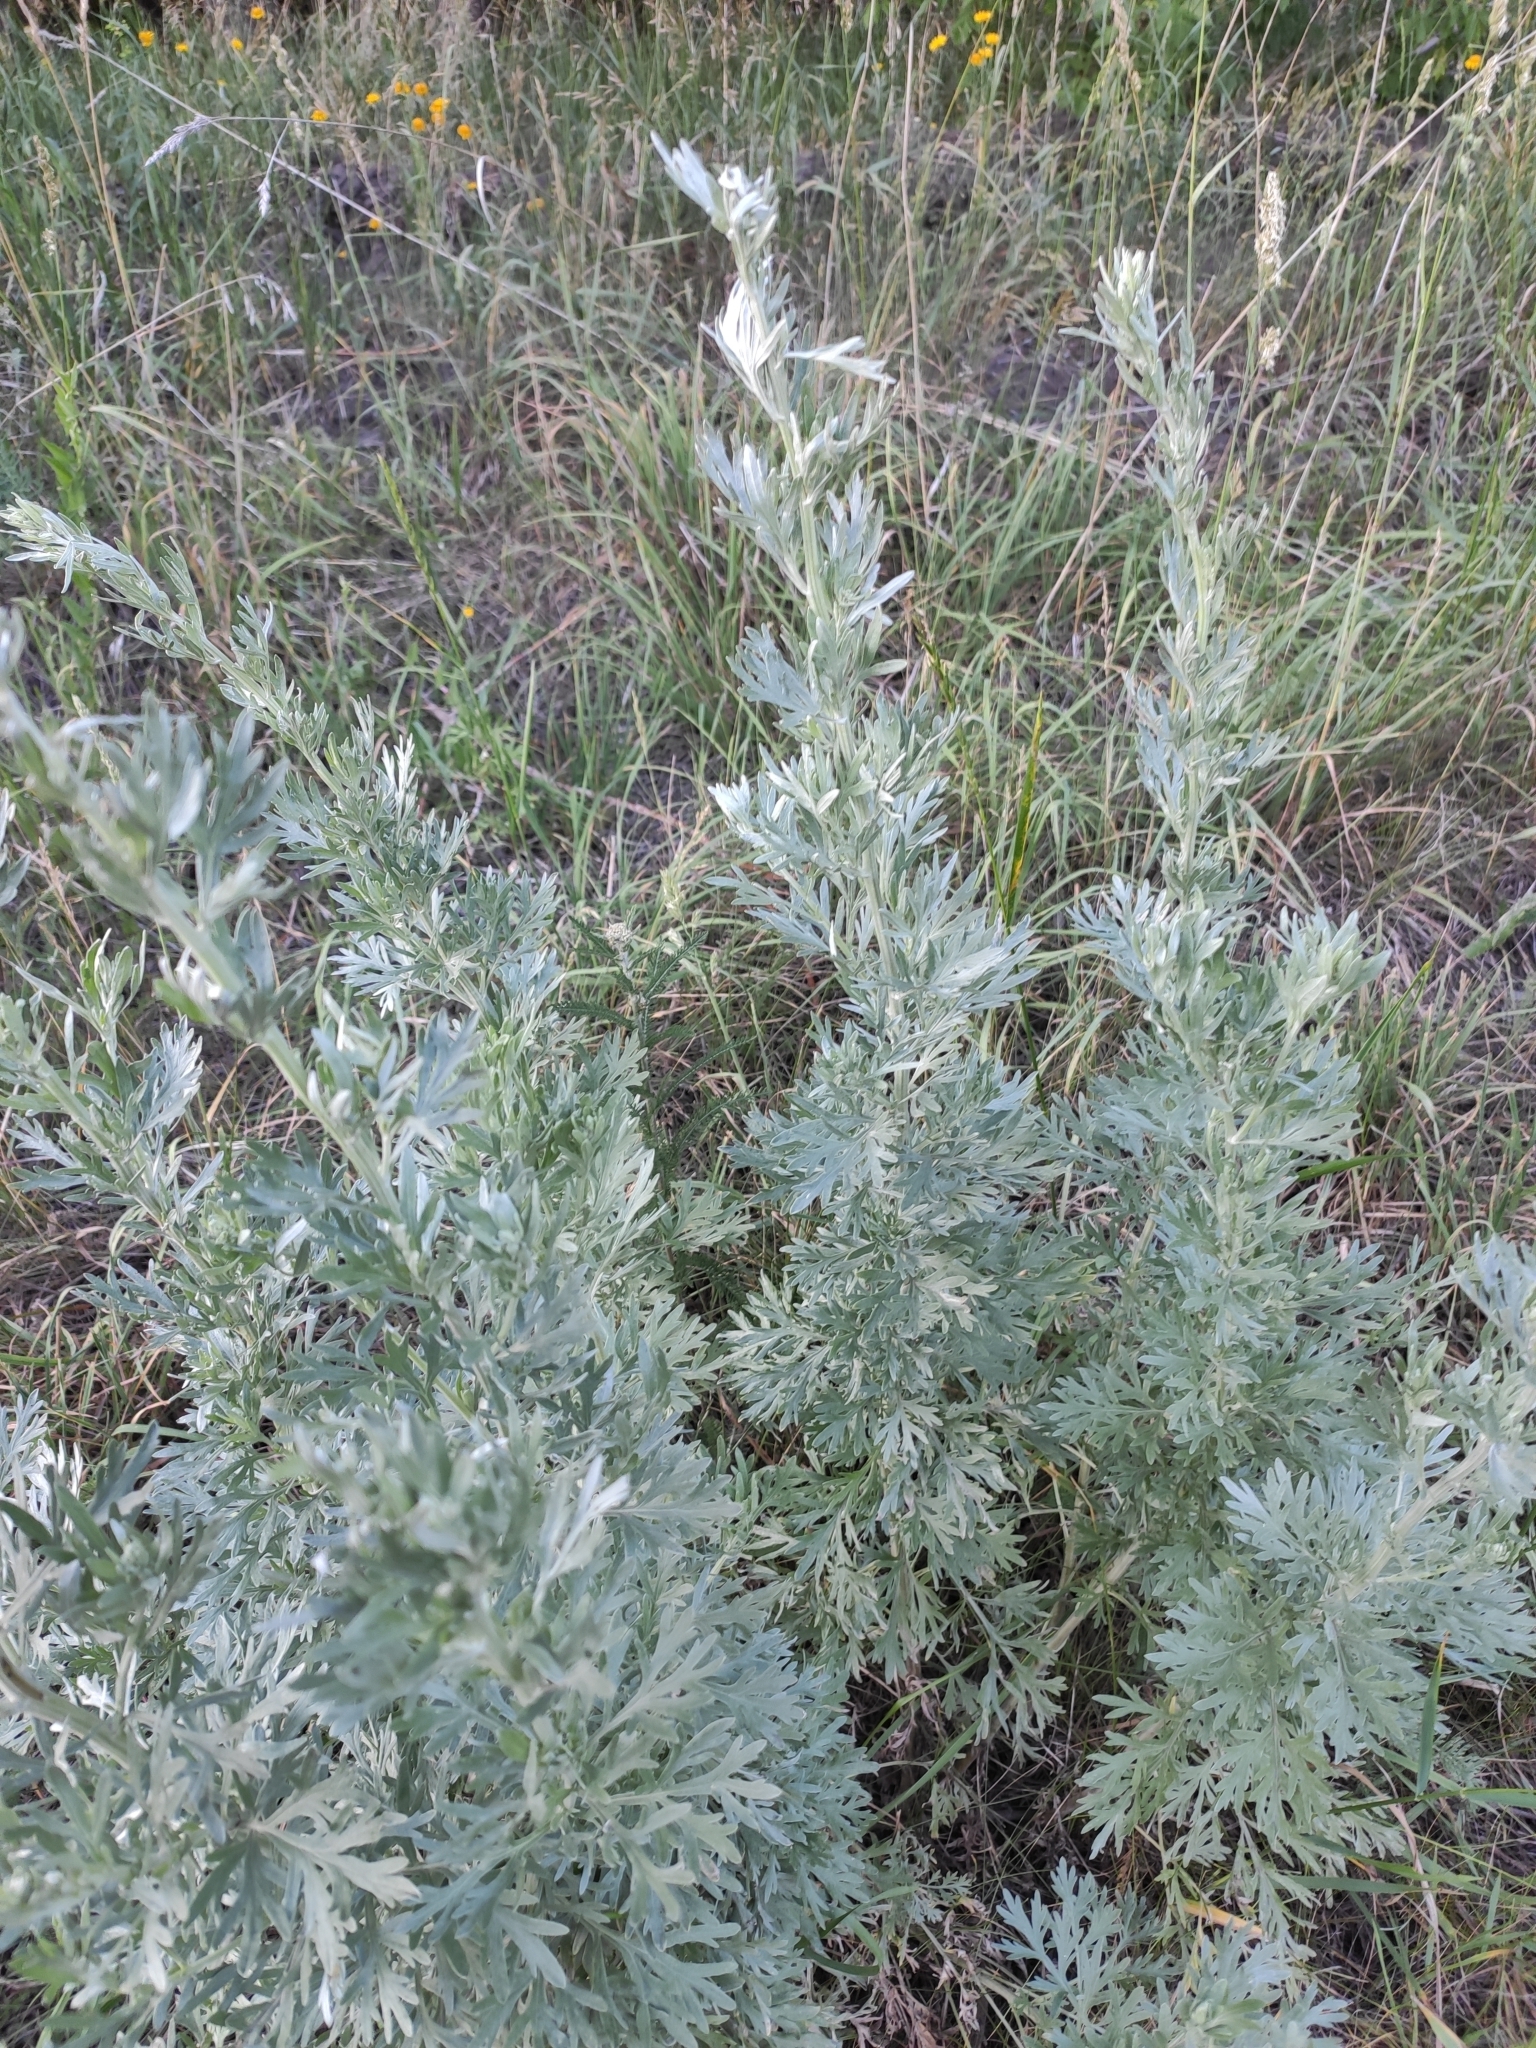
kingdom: Plantae
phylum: Tracheophyta
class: Magnoliopsida
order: Asterales
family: Asteraceae
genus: Artemisia
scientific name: Artemisia absinthium
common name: Wormwood
